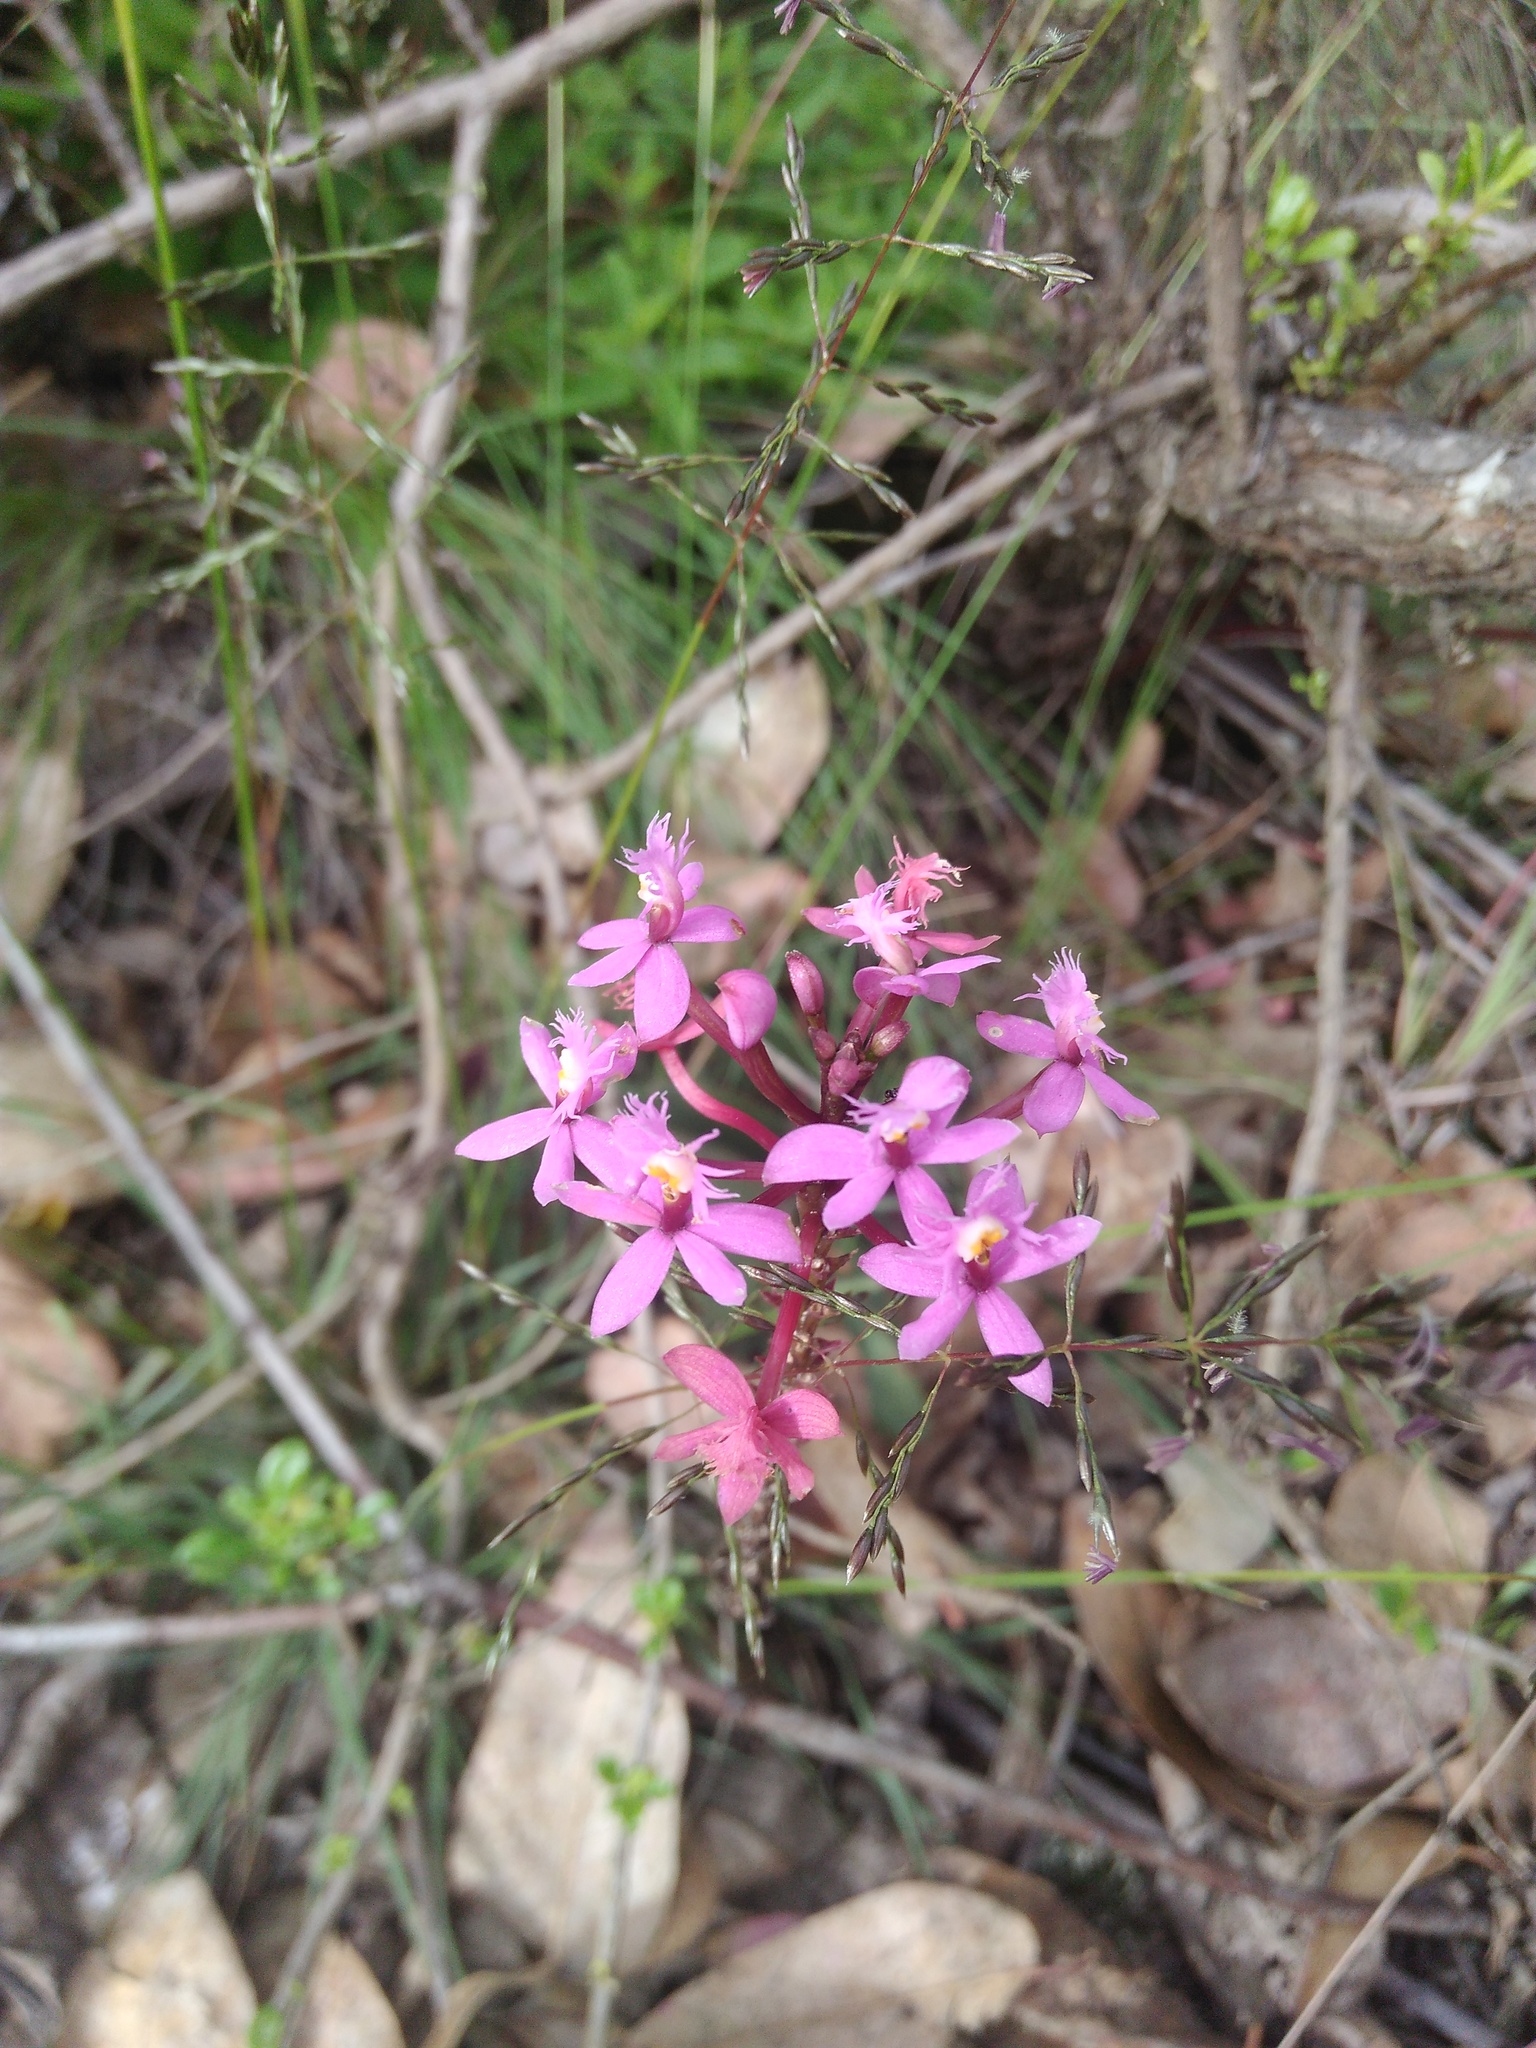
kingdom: Plantae
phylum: Tracheophyta
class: Liliopsida
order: Asparagales
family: Orchidaceae
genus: Epidendrum
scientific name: Epidendrum arachnoglossum
